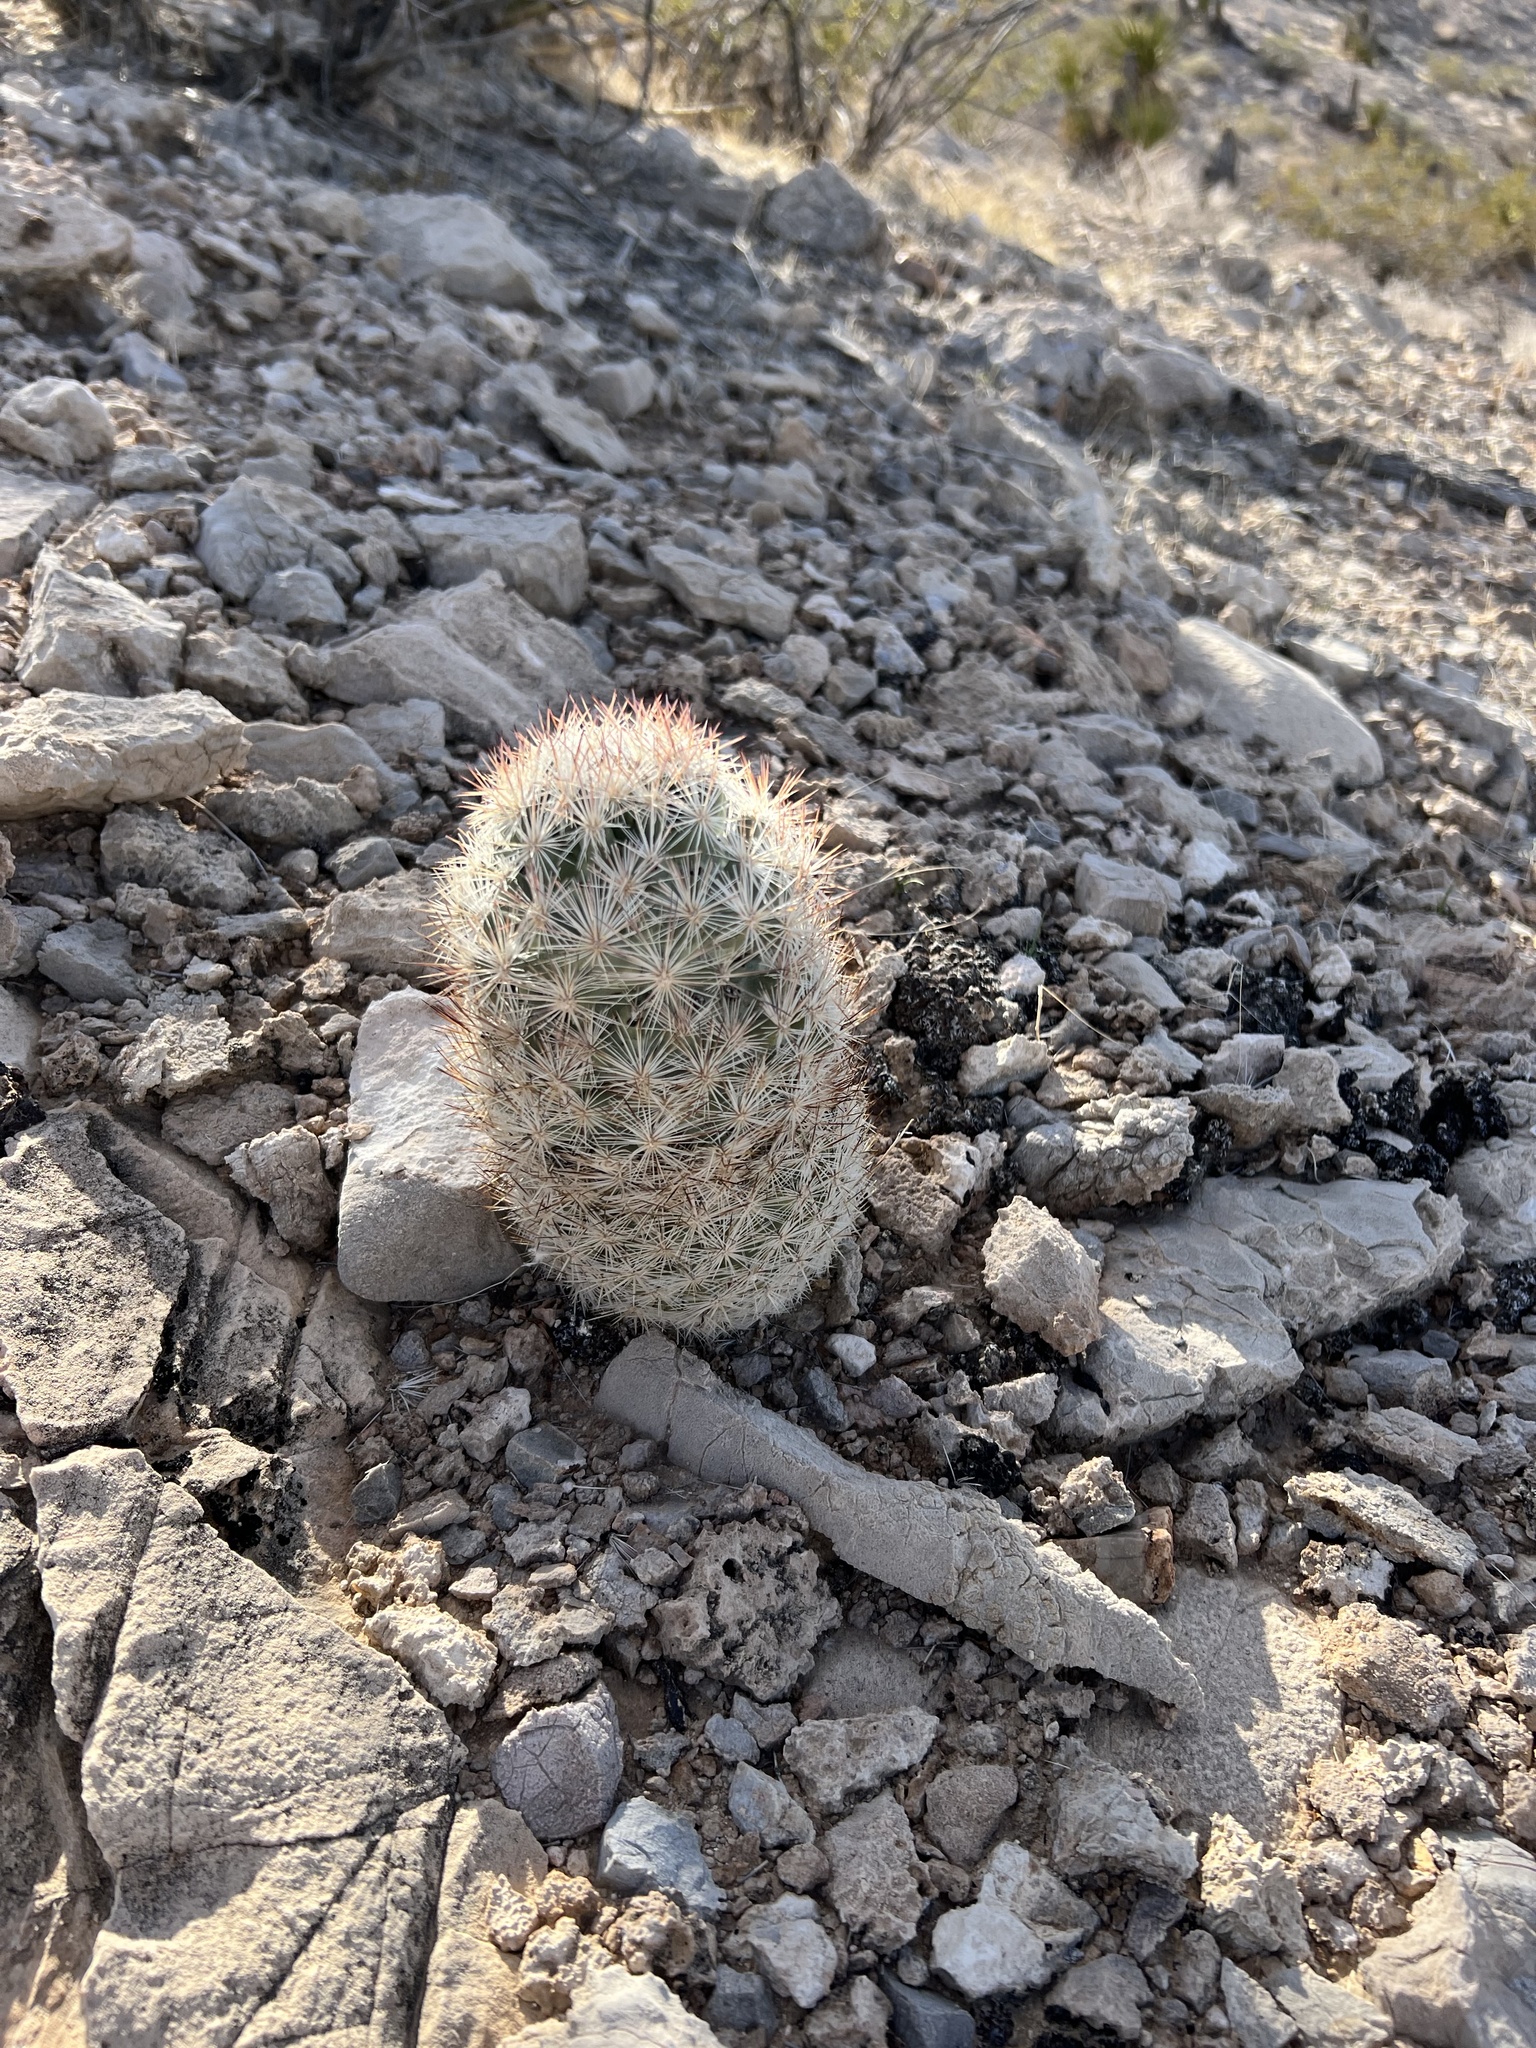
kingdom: Plantae
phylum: Tracheophyta
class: Magnoliopsida
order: Caryophyllales
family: Cactaceae
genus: Pelecyphora
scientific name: Pelecyphora dasyacantha
